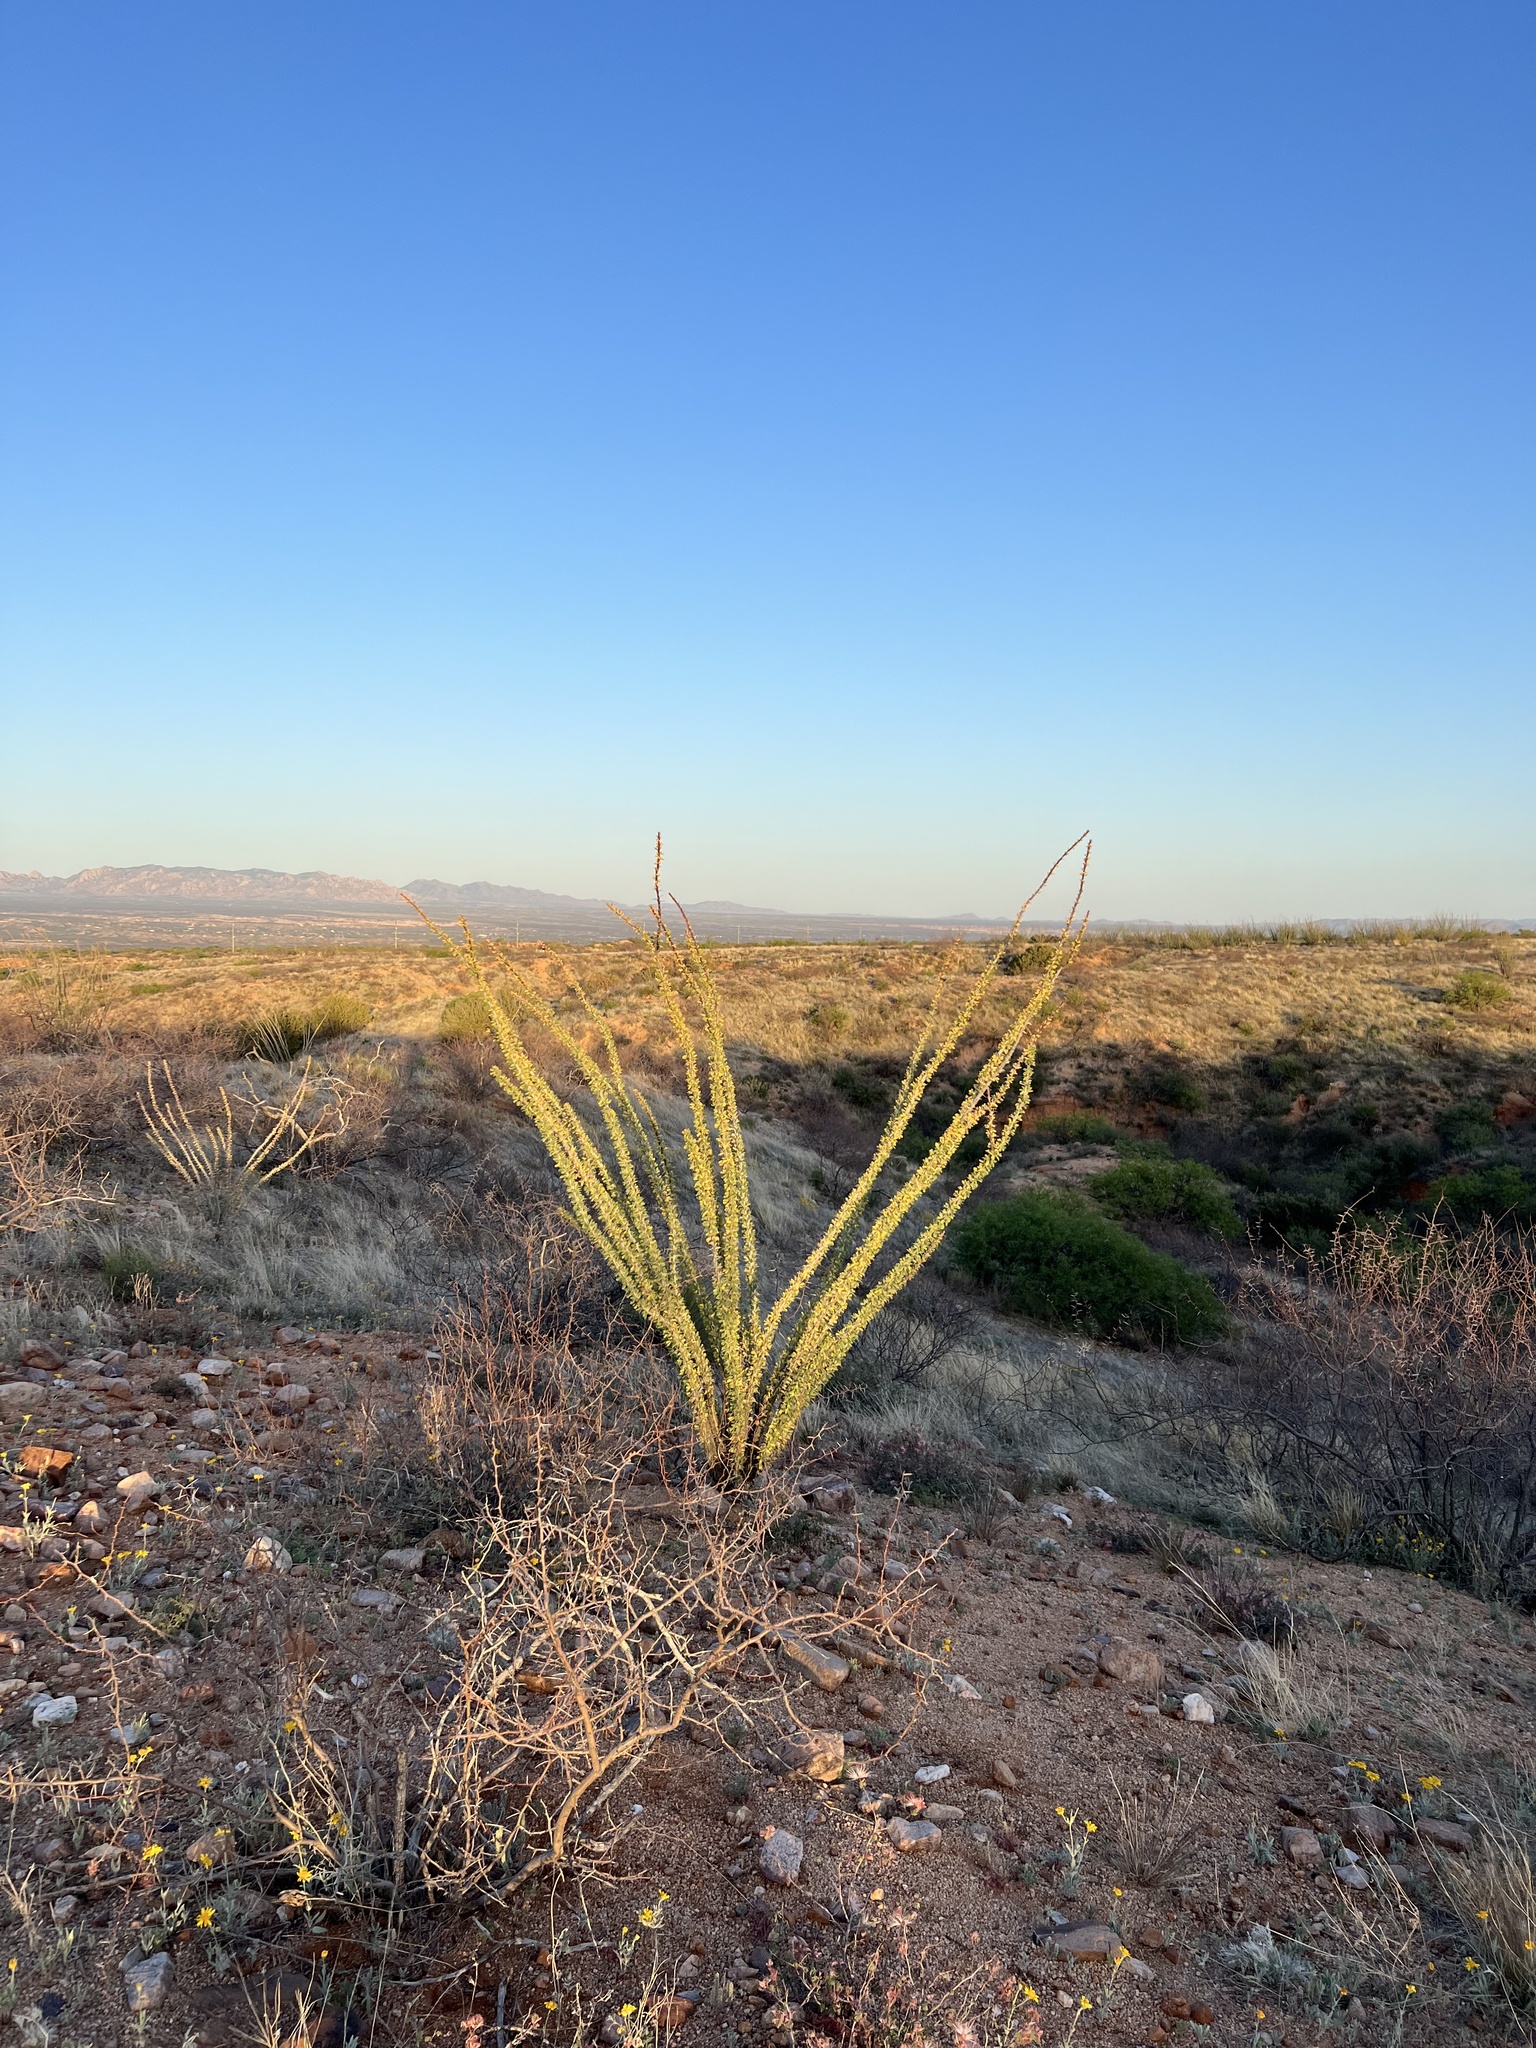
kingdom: Plantae
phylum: Tracheophyta
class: Magnoliopsida
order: Ericales
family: Fouquieriaceae
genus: Fouquieria
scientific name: Fouquieria splendens
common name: Vine-cactus
